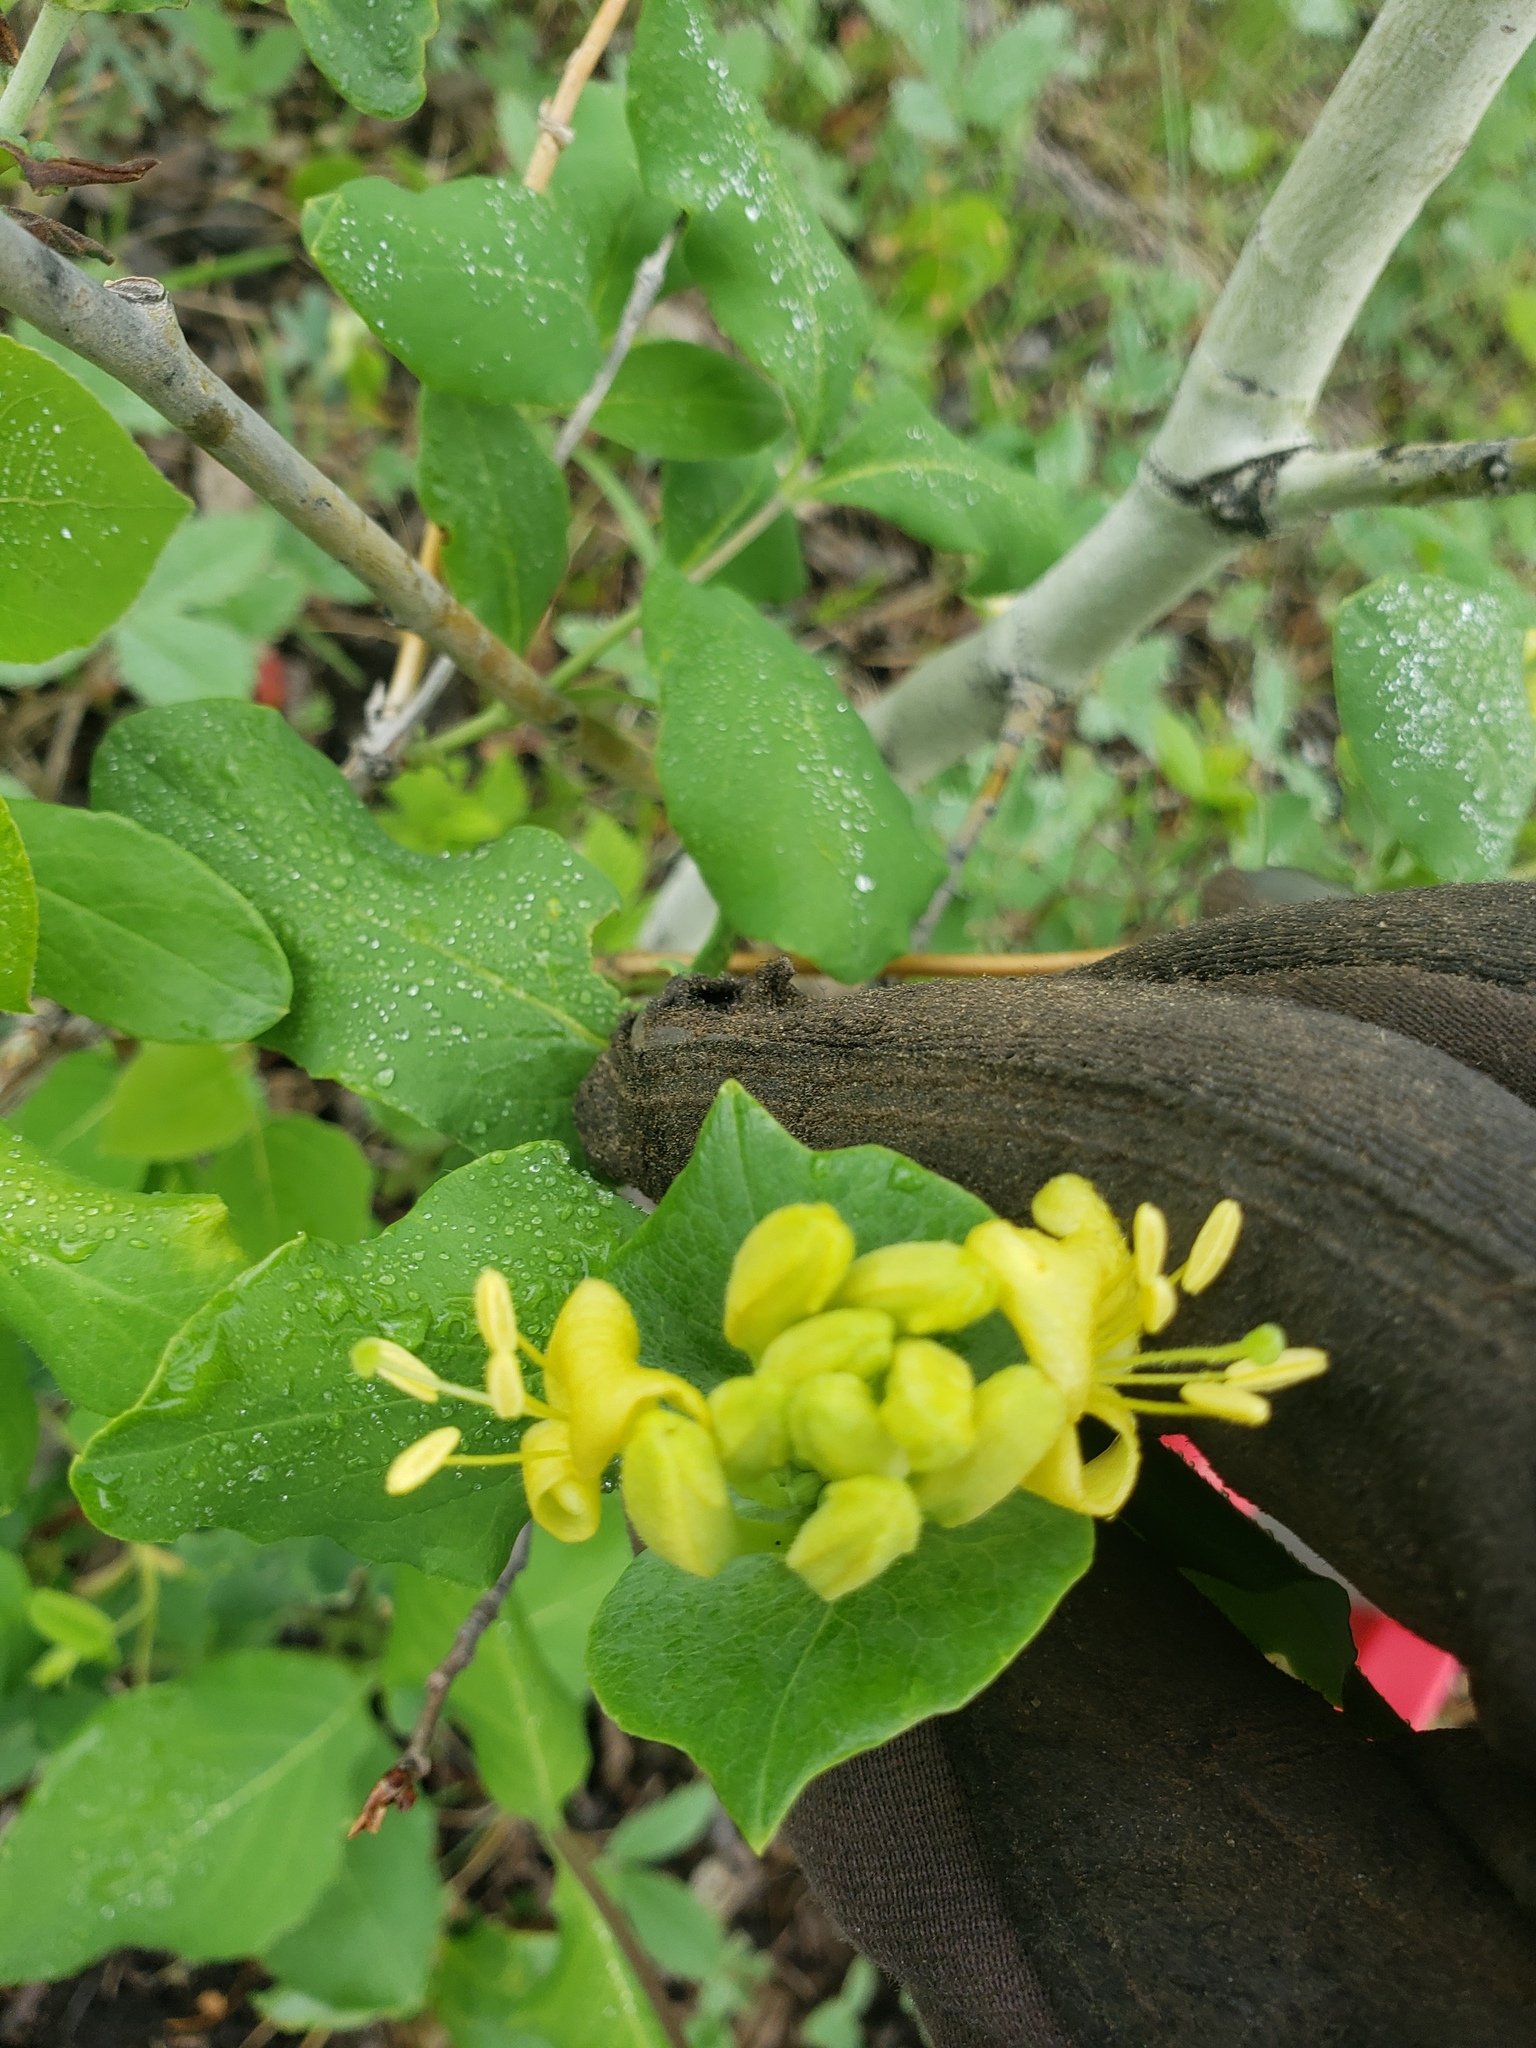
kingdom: Plantae
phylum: Tracheophyta
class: Magnoliopsida
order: Dipsacales
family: Caprifoliaceae
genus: Lonicera
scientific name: Lonicera dioica
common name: Limber honeysuckle
